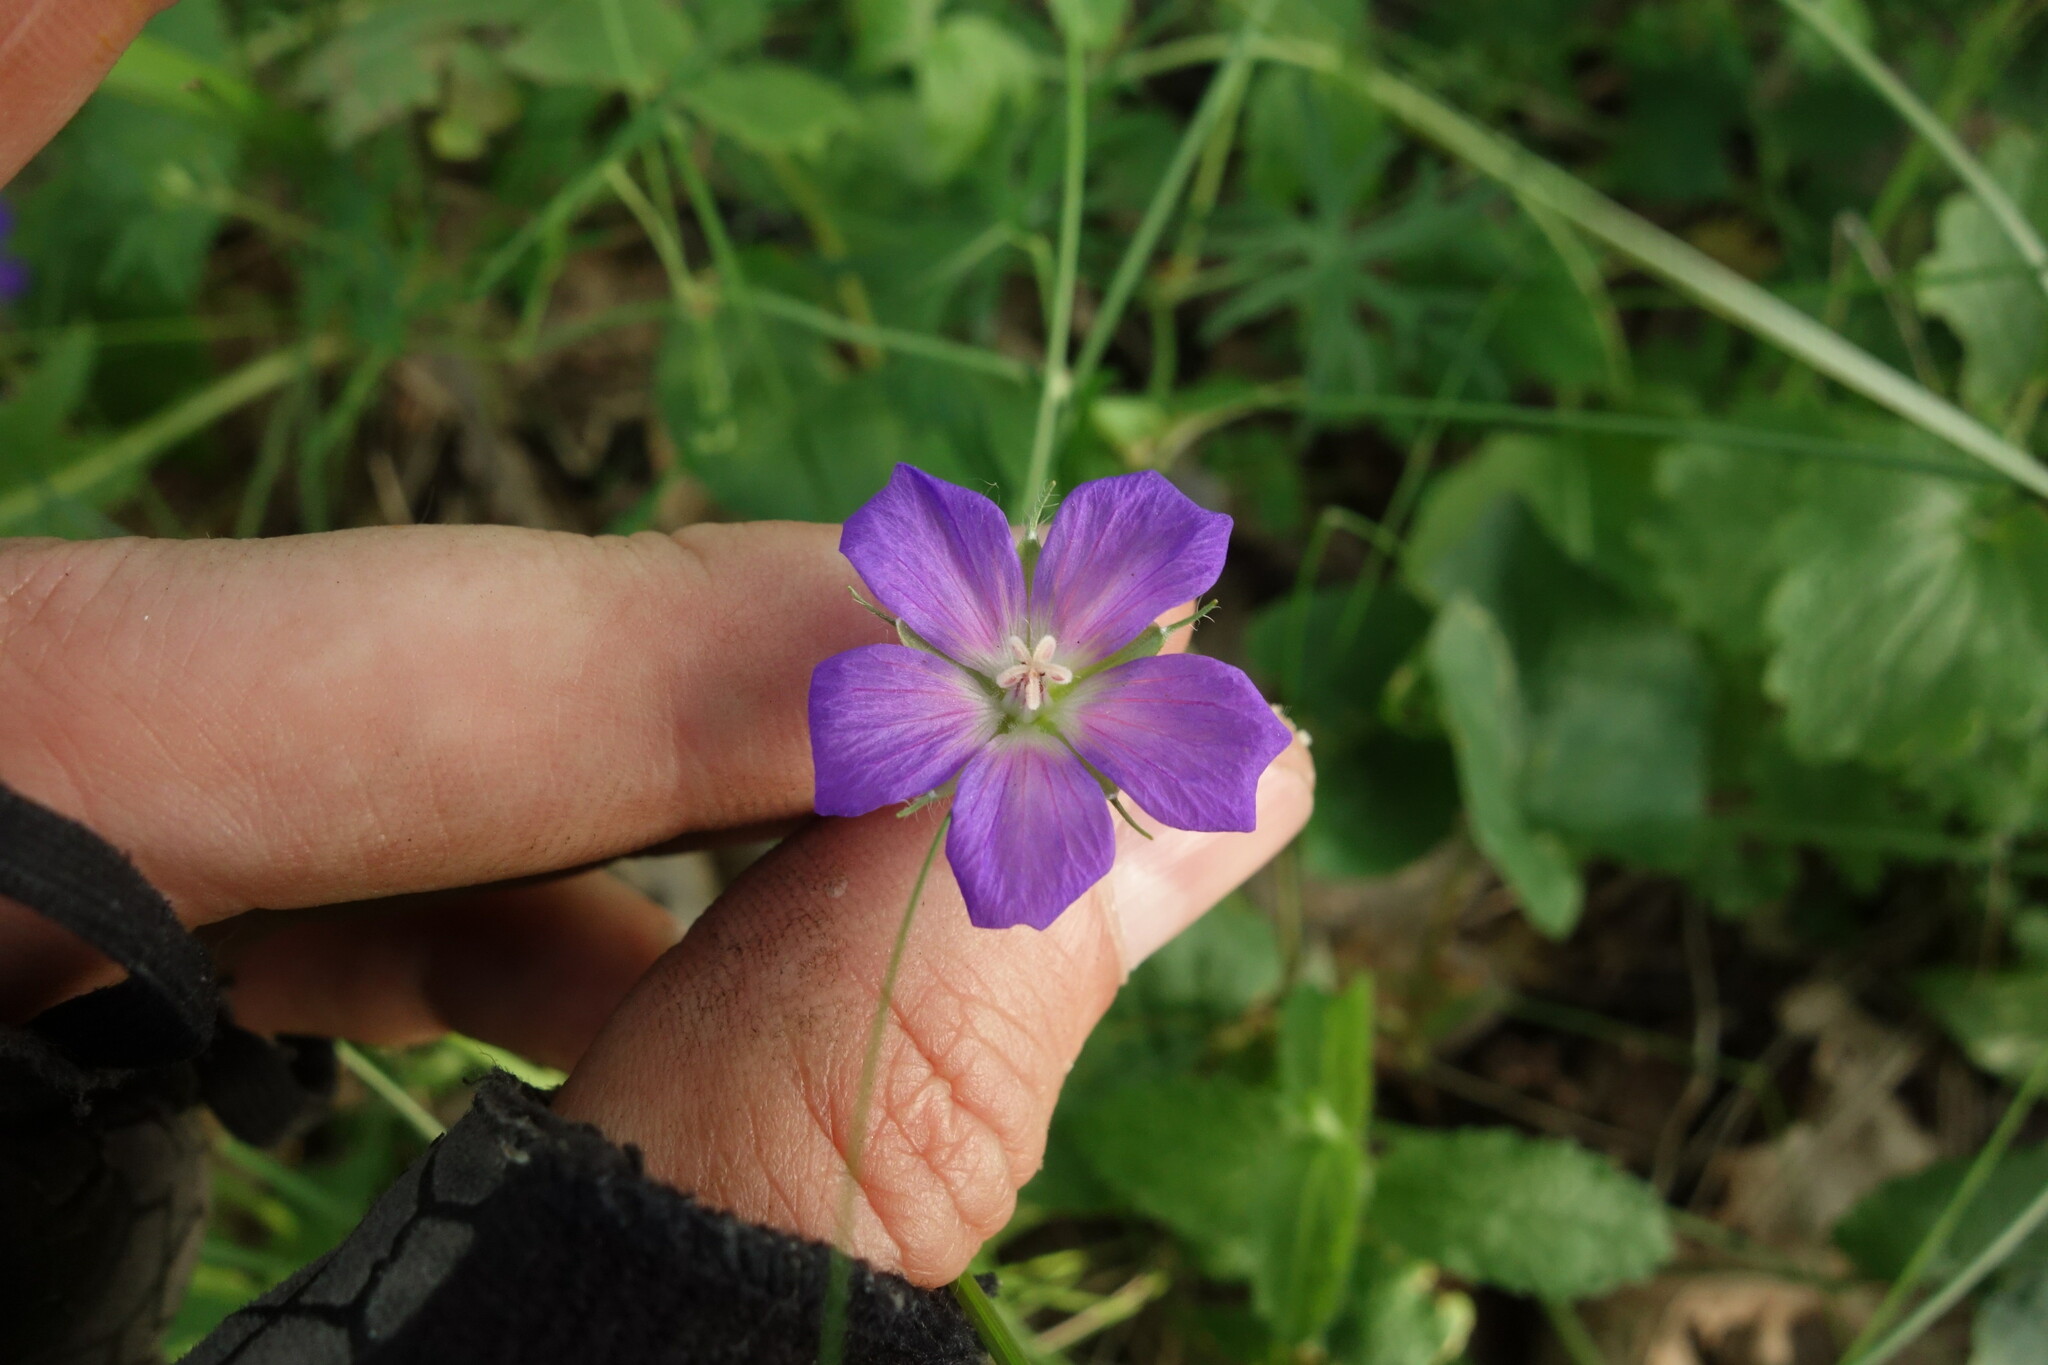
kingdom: Plantae
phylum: Tracheophyta
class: Magnoliopsida
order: Geraniales
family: Geraniaceae
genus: Geranium
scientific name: Geranium sanguineum
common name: Bloody crane's-bill
